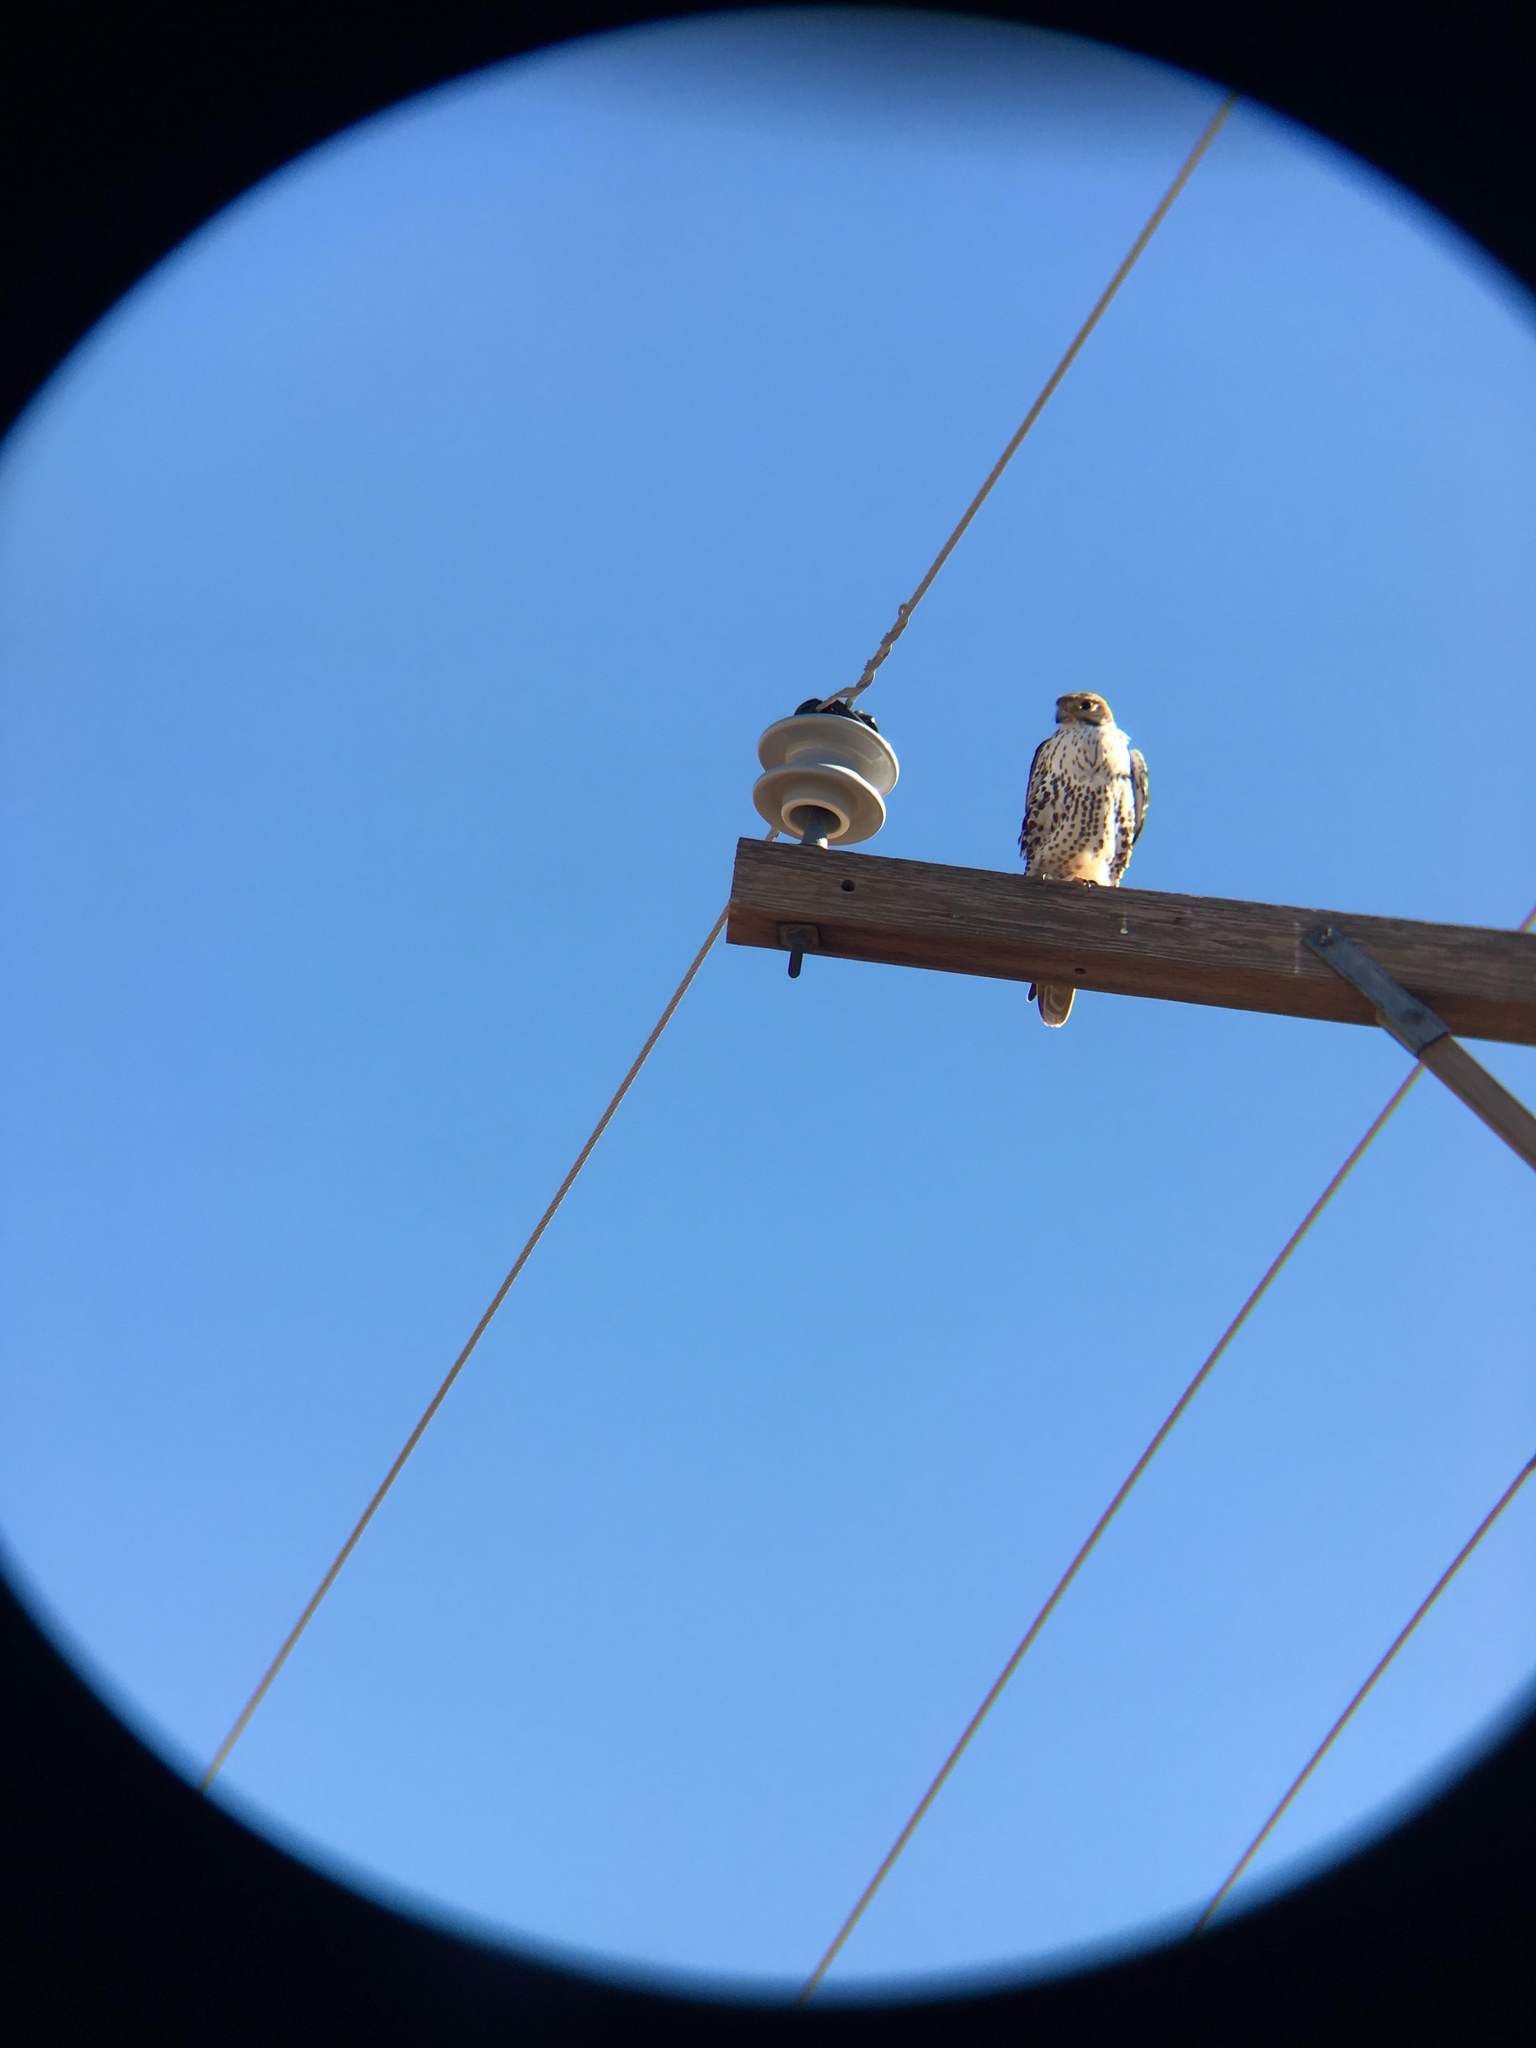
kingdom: Animalia
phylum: Chordata
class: Aves
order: Falconiformes
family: Falconidae
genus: Falco
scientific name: Falco mexicanus
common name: Prairie falcon
